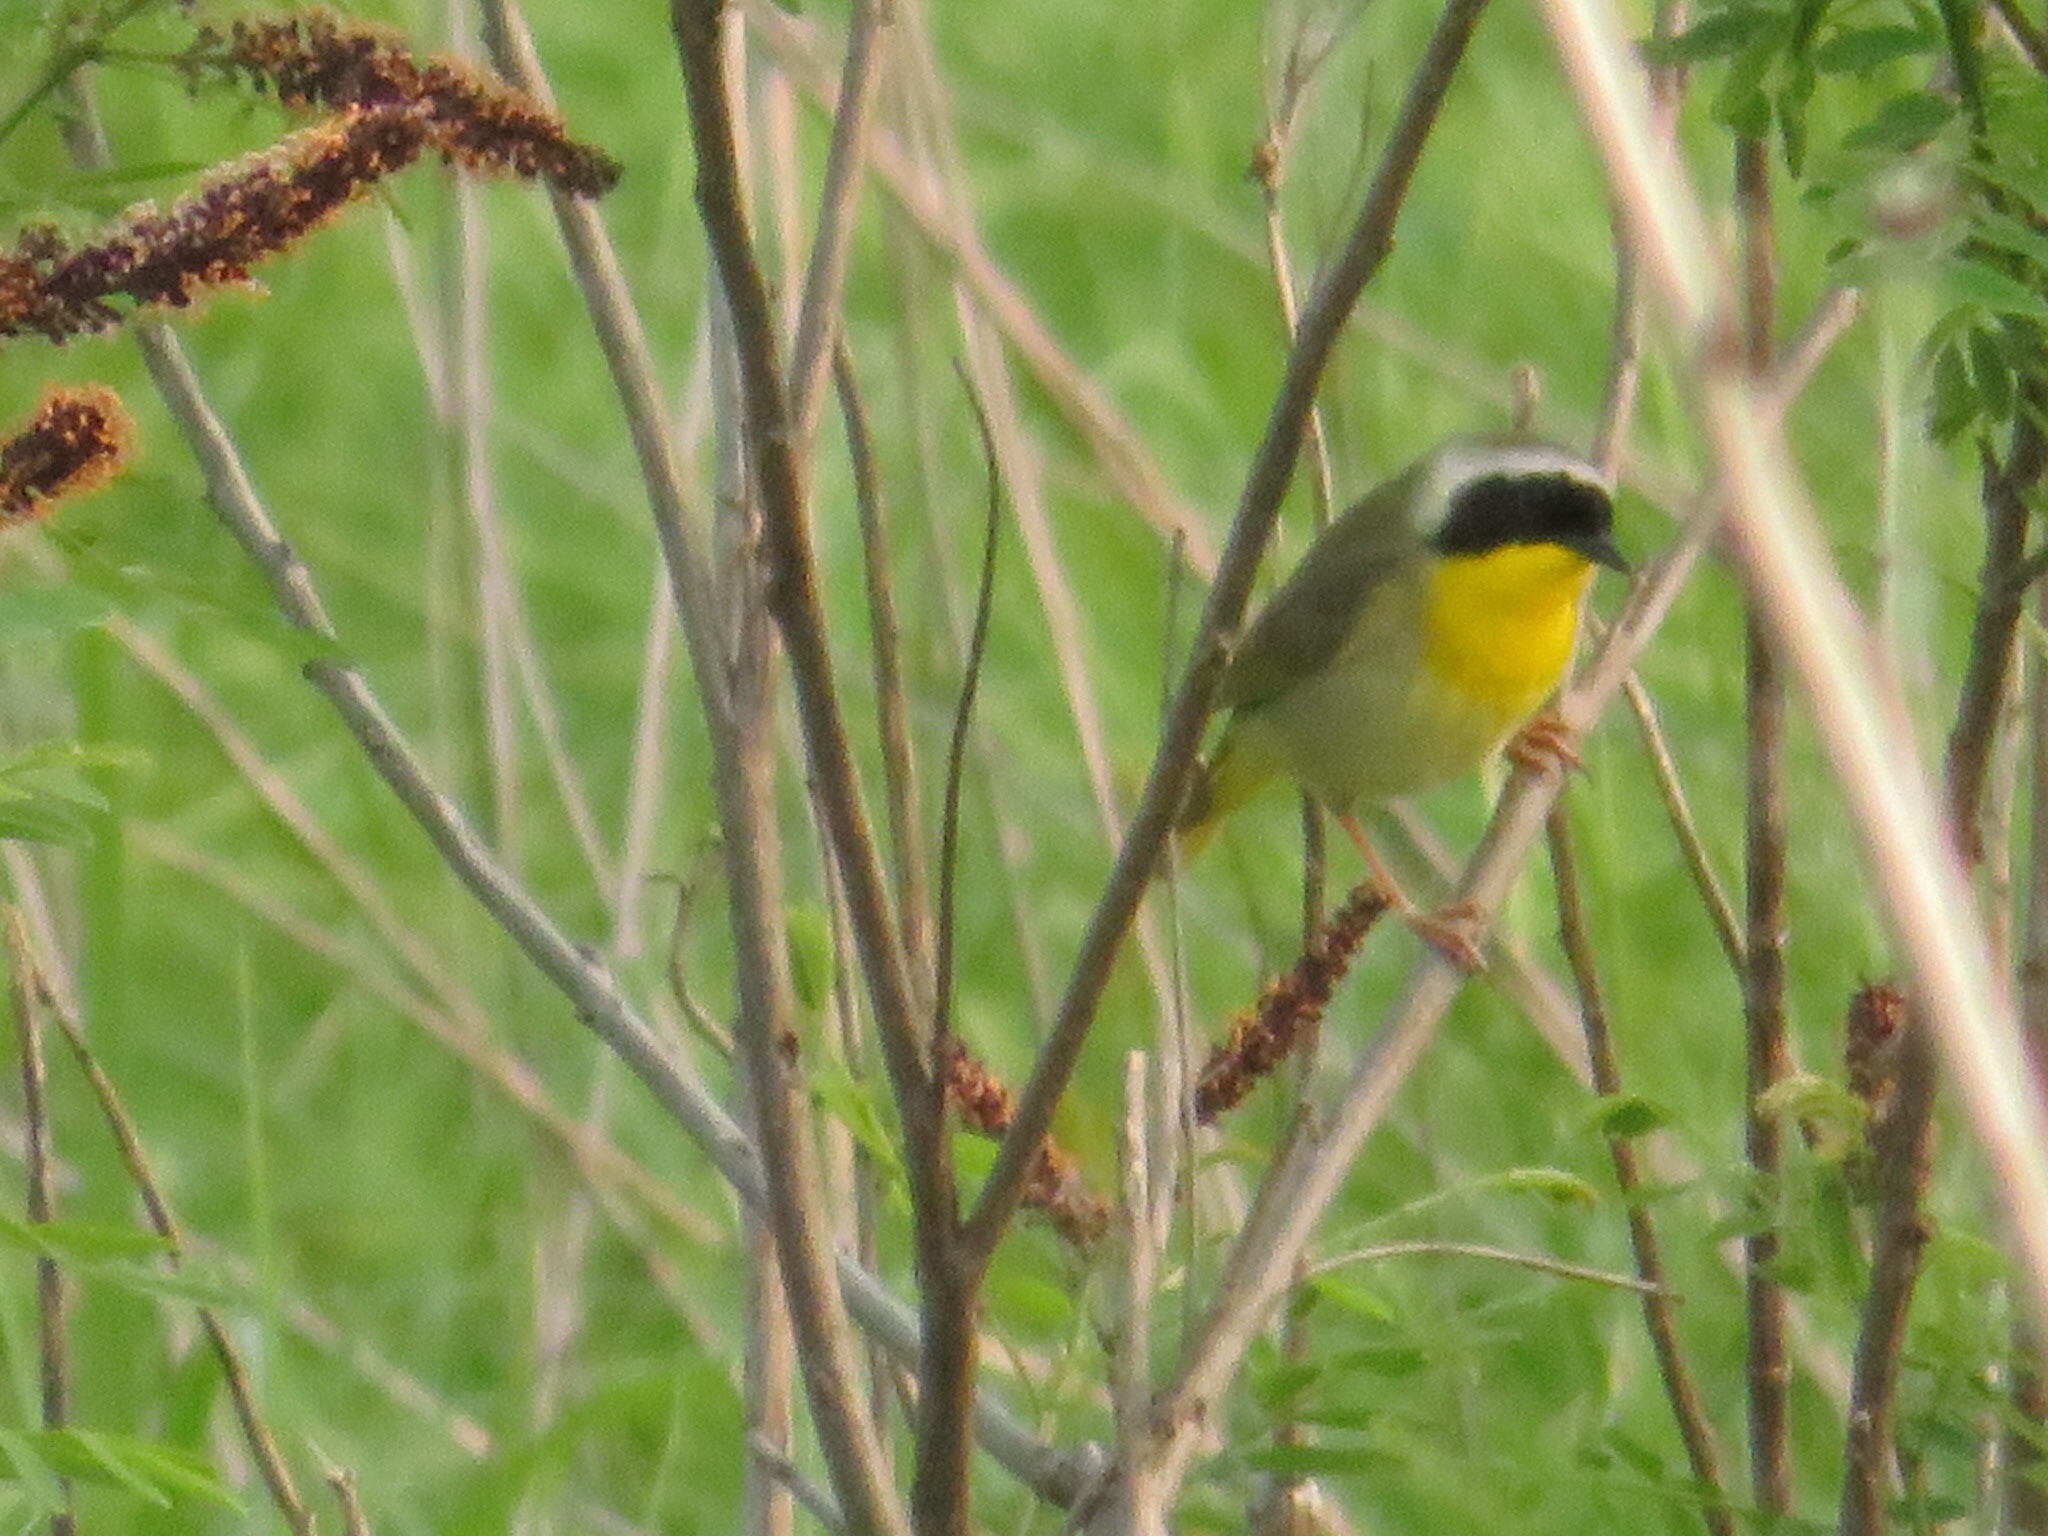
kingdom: Animalia
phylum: Chordata
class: Aves
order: Passeriformes
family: Parulidae
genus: Geothlypis
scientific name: Geothlypis trichas
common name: Common yellowthroat
